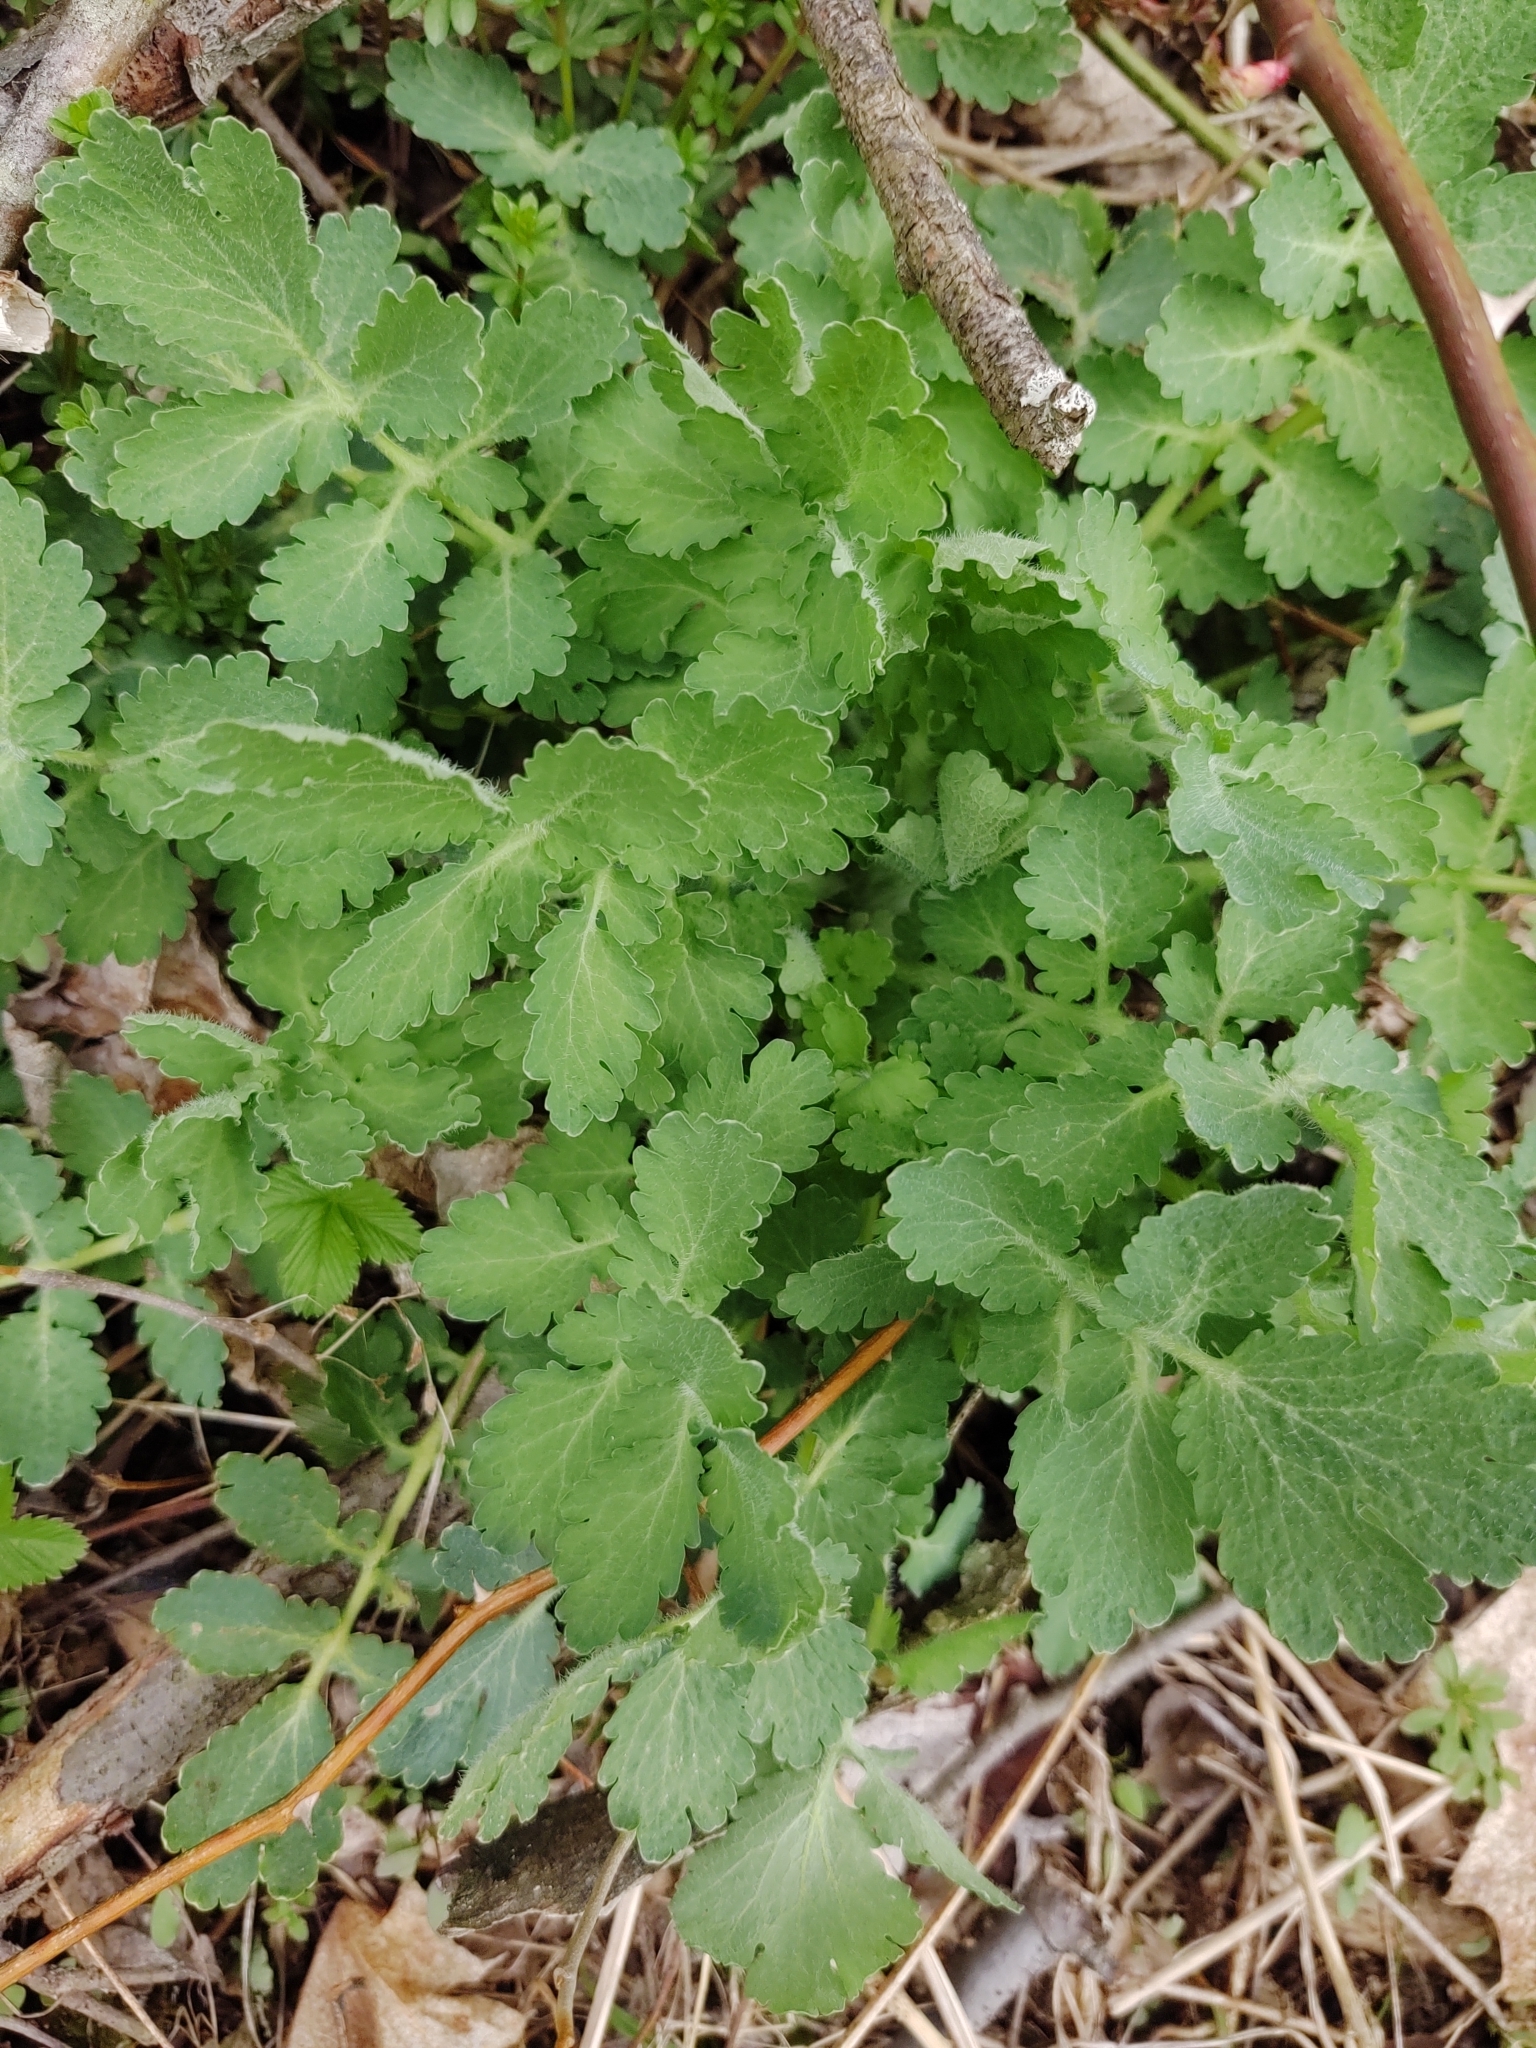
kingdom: Plantae
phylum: Tracheophyta
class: Magnoliopsida
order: Ranunculales
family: Papaveraceae
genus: Chelidonium
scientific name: Chelidonium majus
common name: Greater celandine
